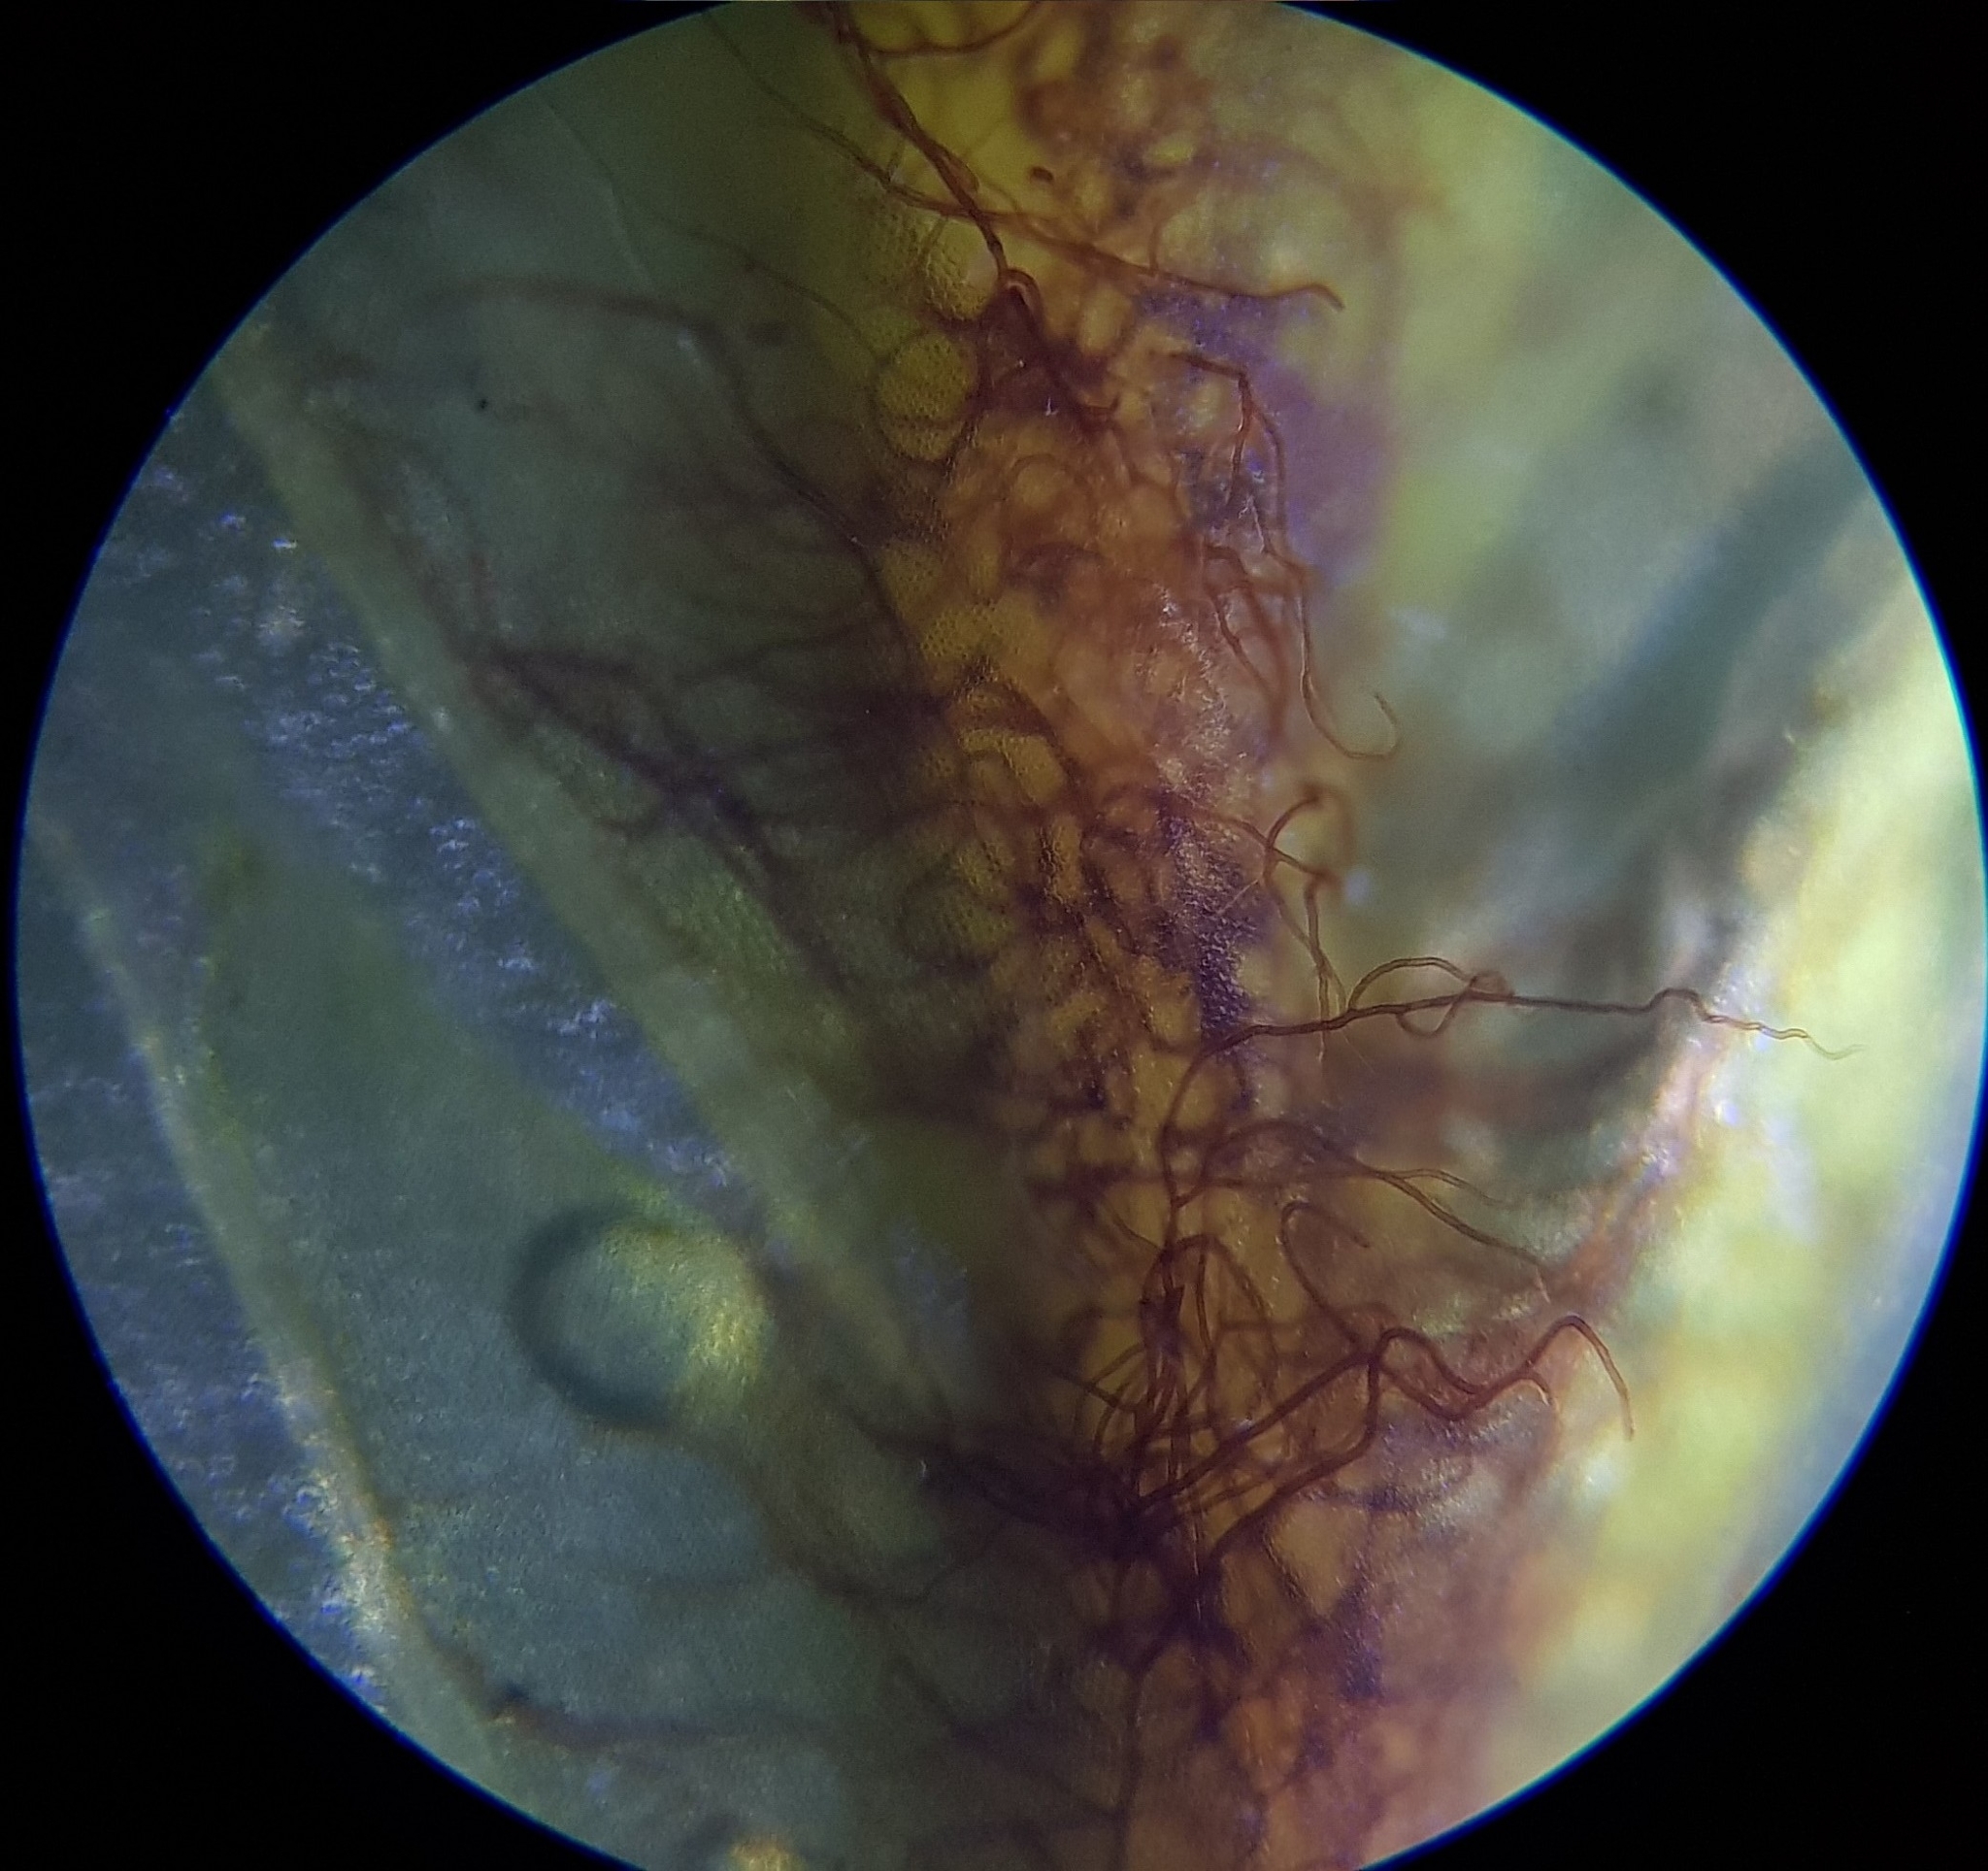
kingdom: Plantae
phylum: Bryophyta
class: Bryopsida
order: Dicranales
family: Fissidentaceae
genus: Fissidens
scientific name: Fissidens dubius
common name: Rock pocket moss
